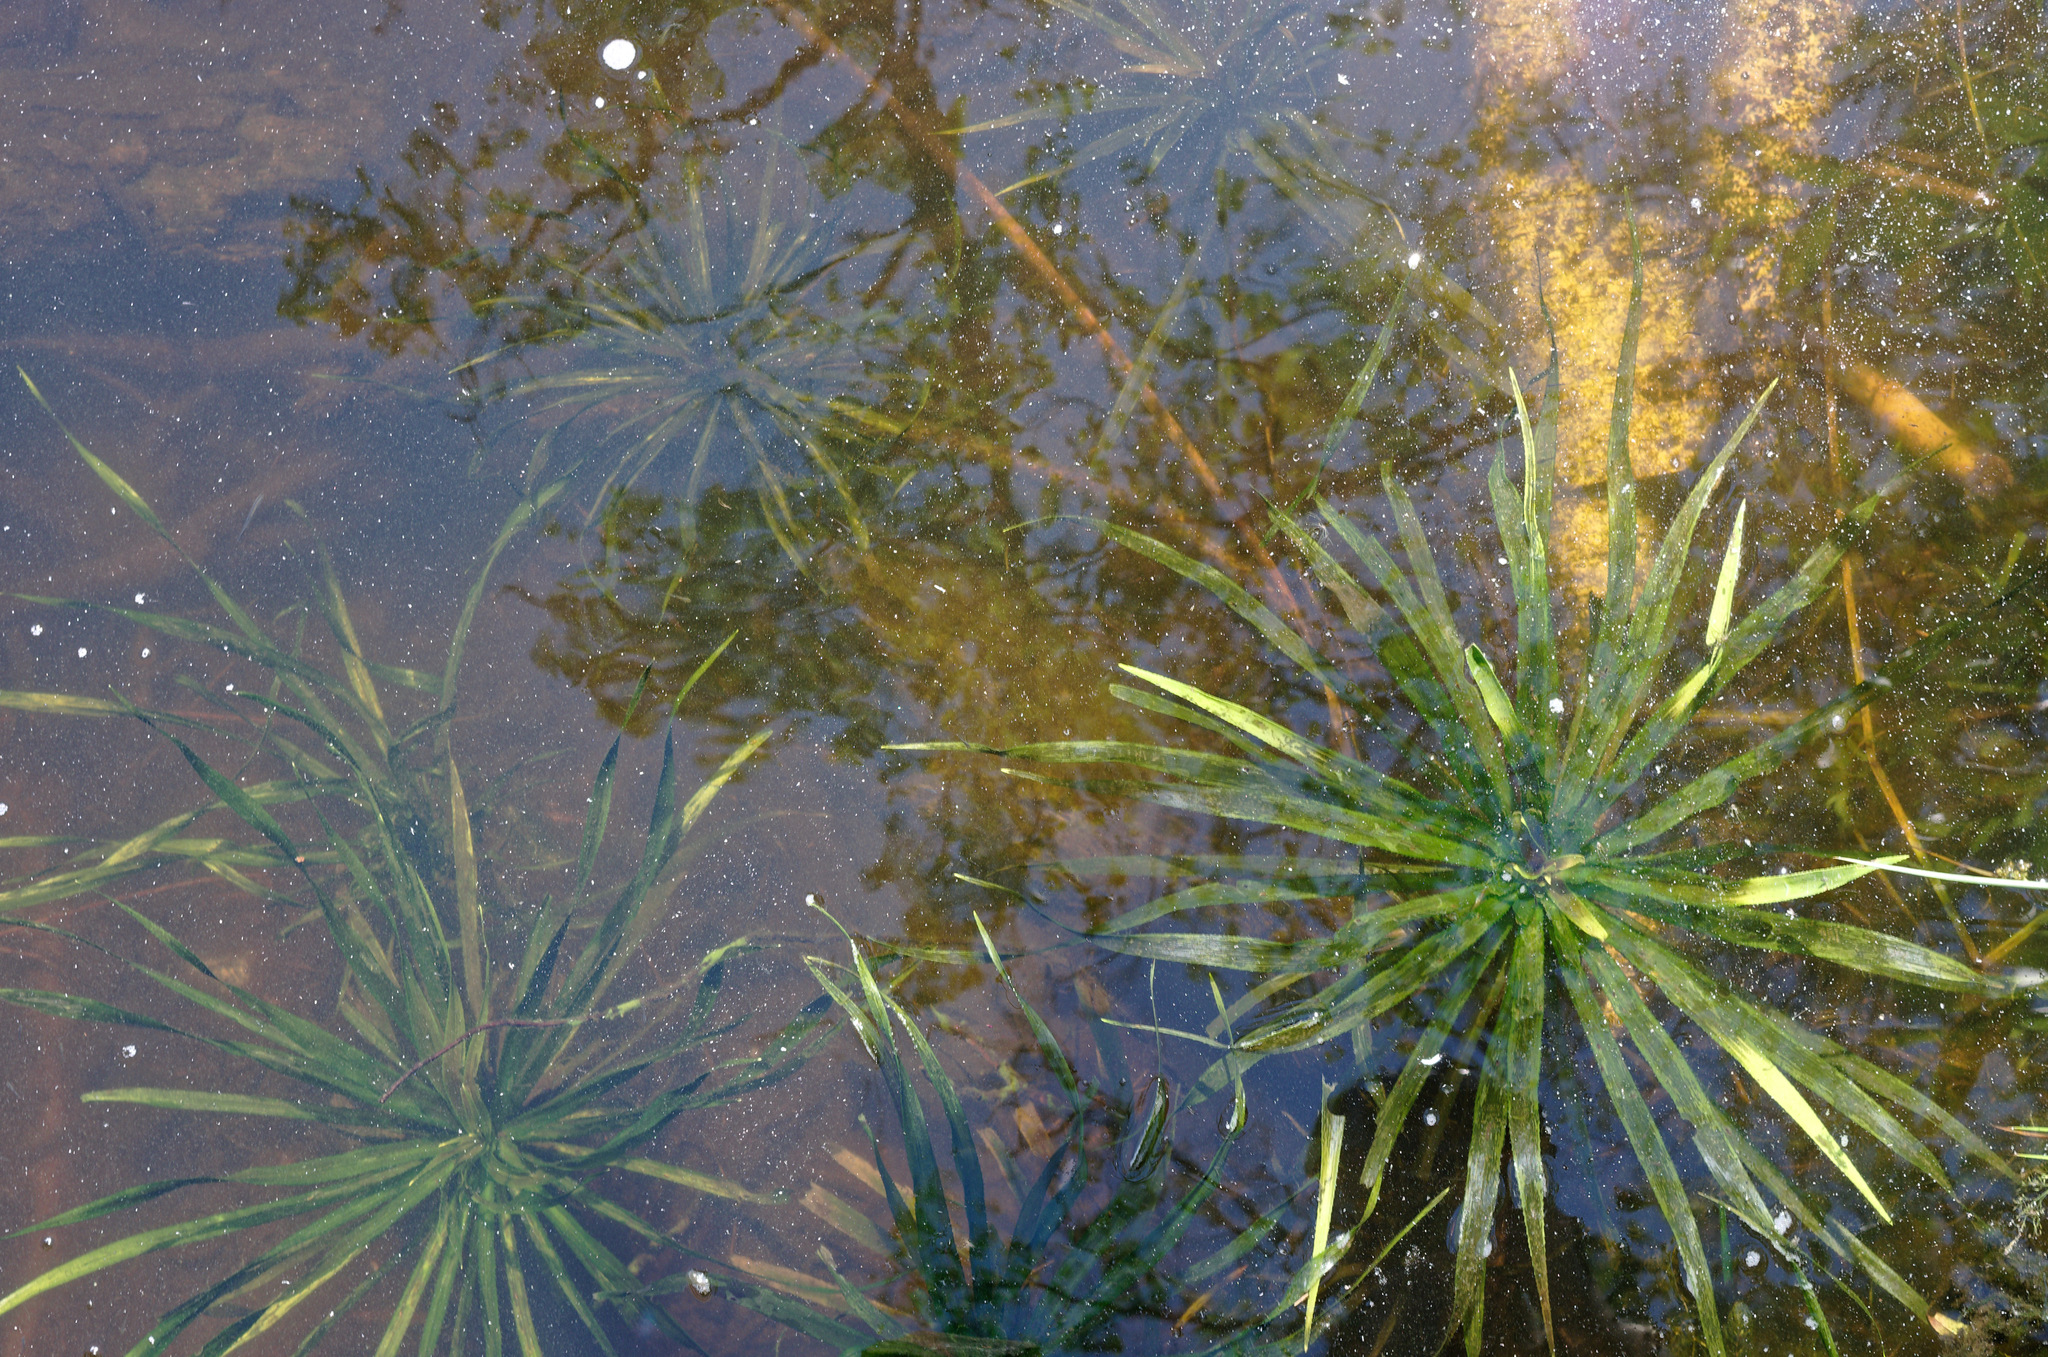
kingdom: Plantae
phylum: Tracheophyta
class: Liliopsida
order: Alismatales
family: Hydrocharitaceae
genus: Stratiotes
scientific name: Stratiotes aloides
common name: Water-soldier
